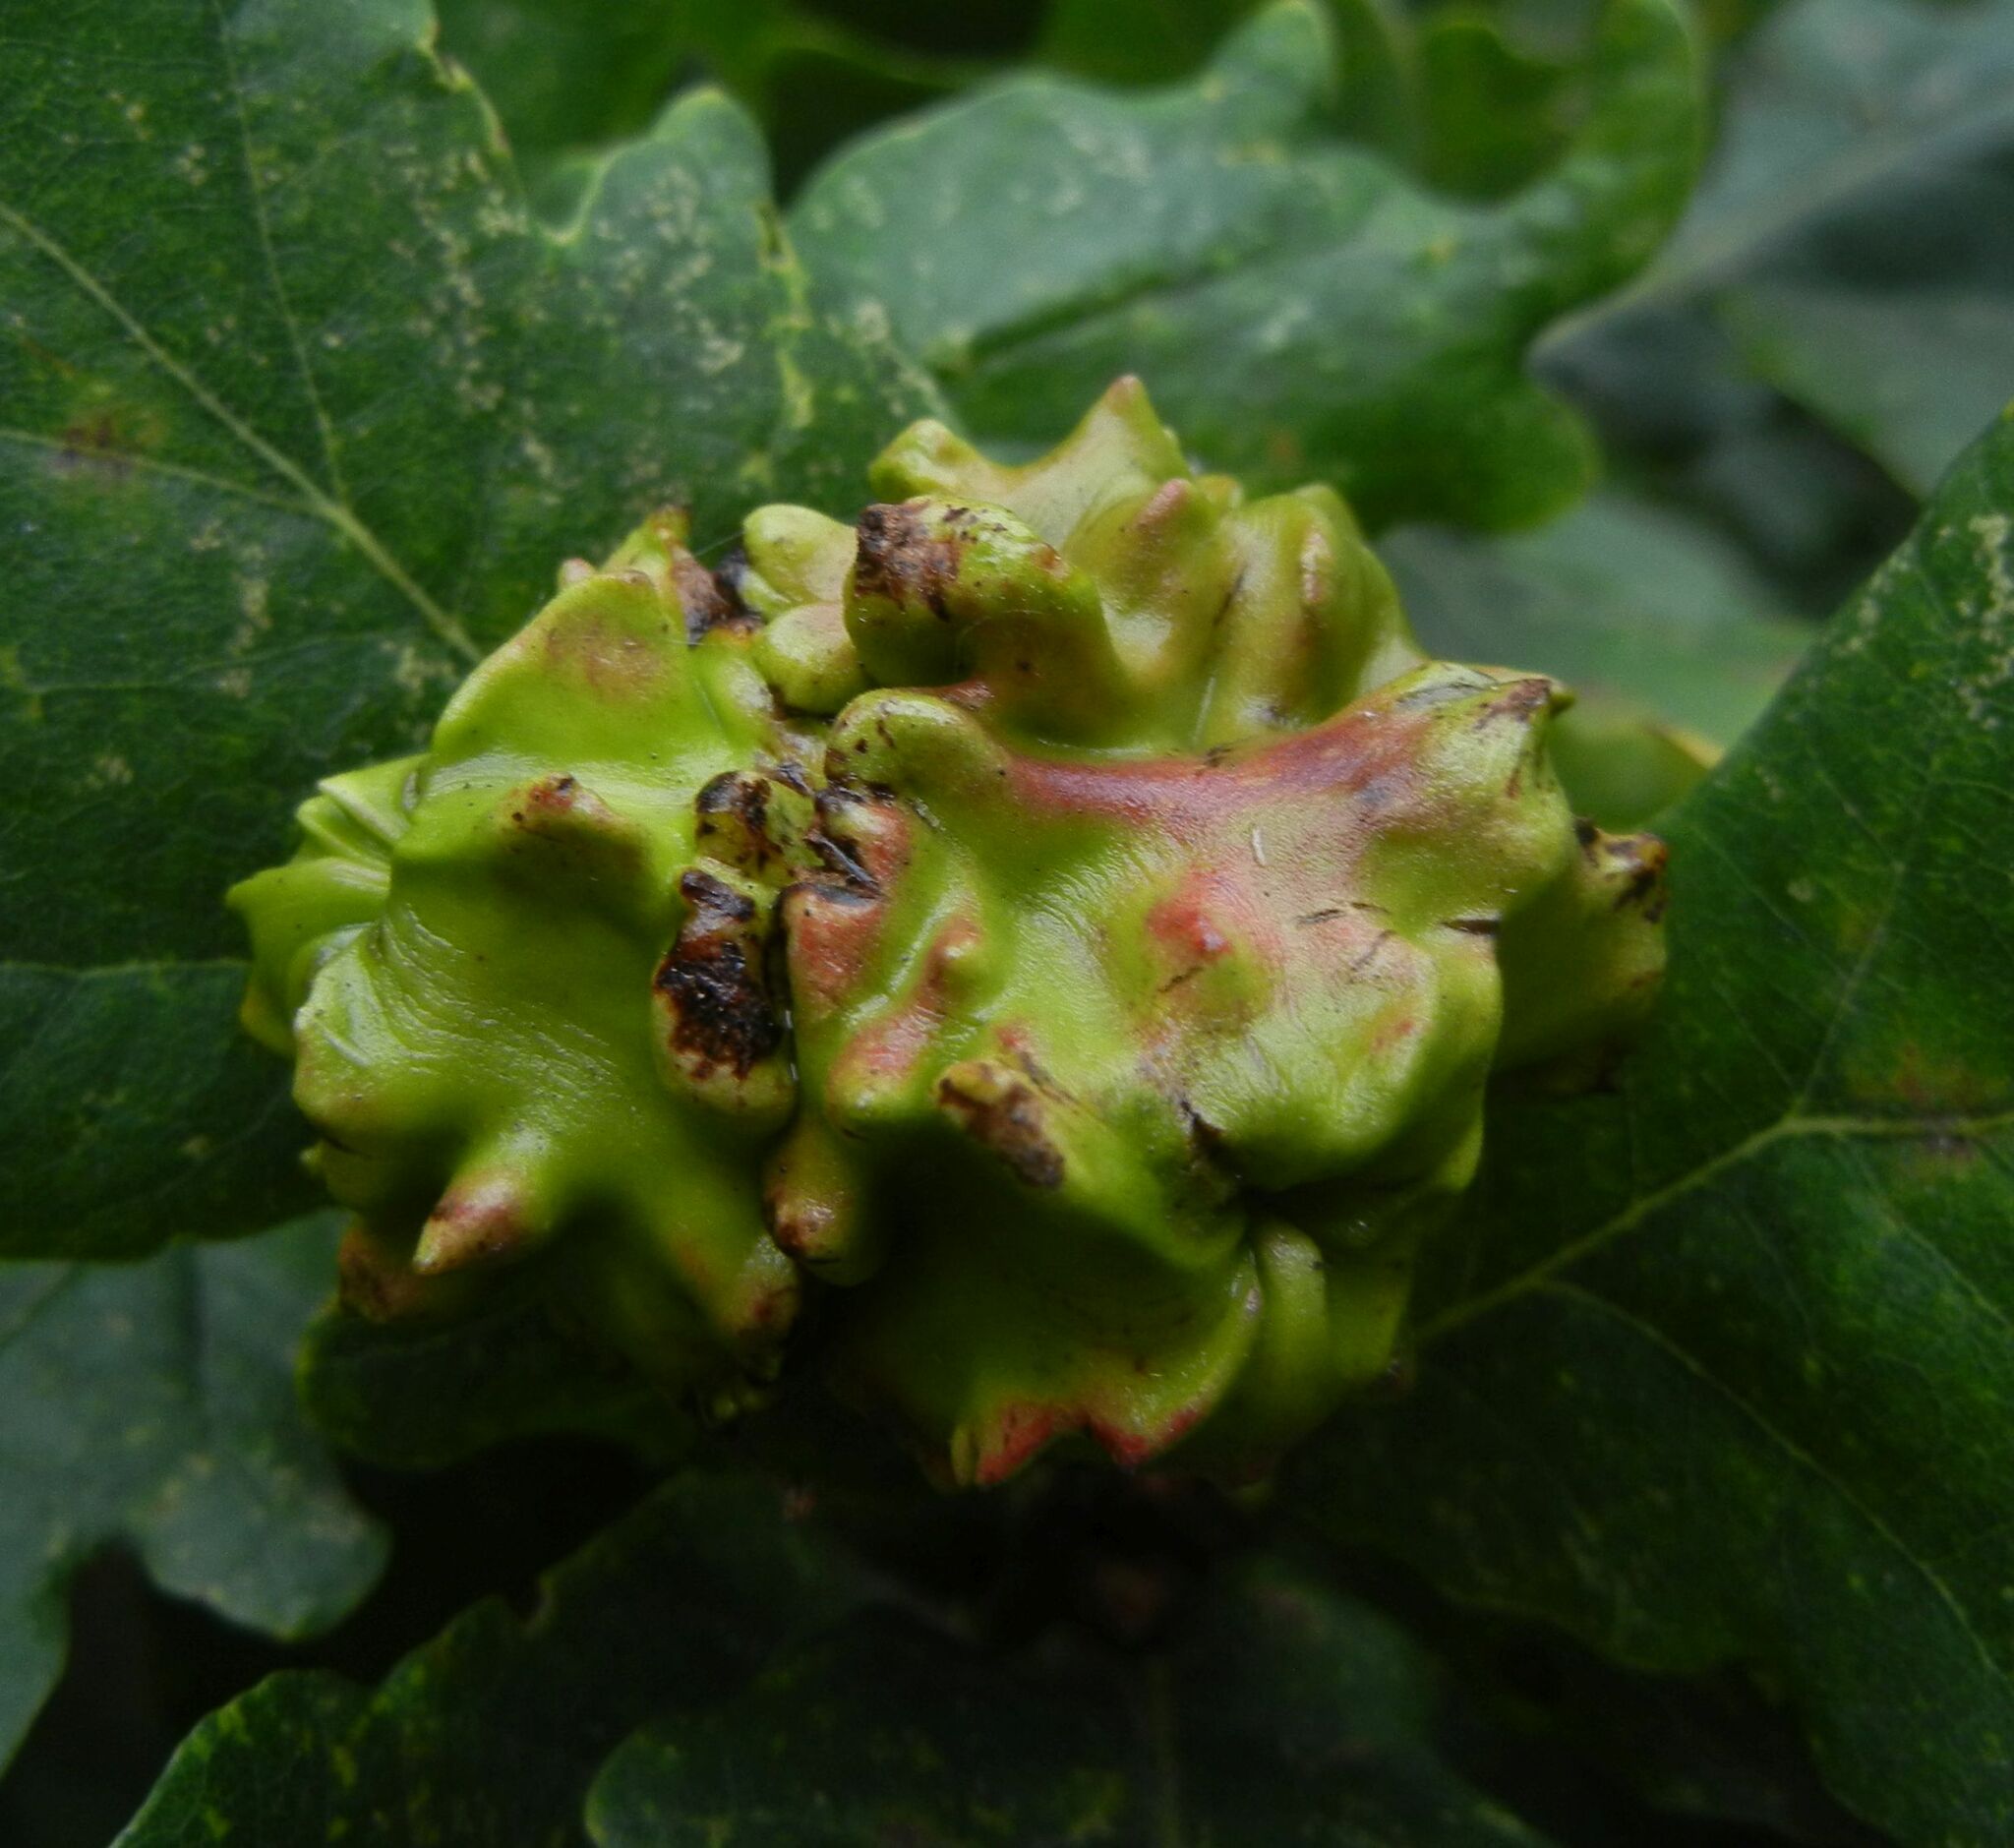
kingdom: Animalia
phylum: Arthropoda
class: Insecta
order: Hymenoptera
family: Cynipidae
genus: Andricus
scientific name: Andricus quercuscalicis
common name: Knopper gall
